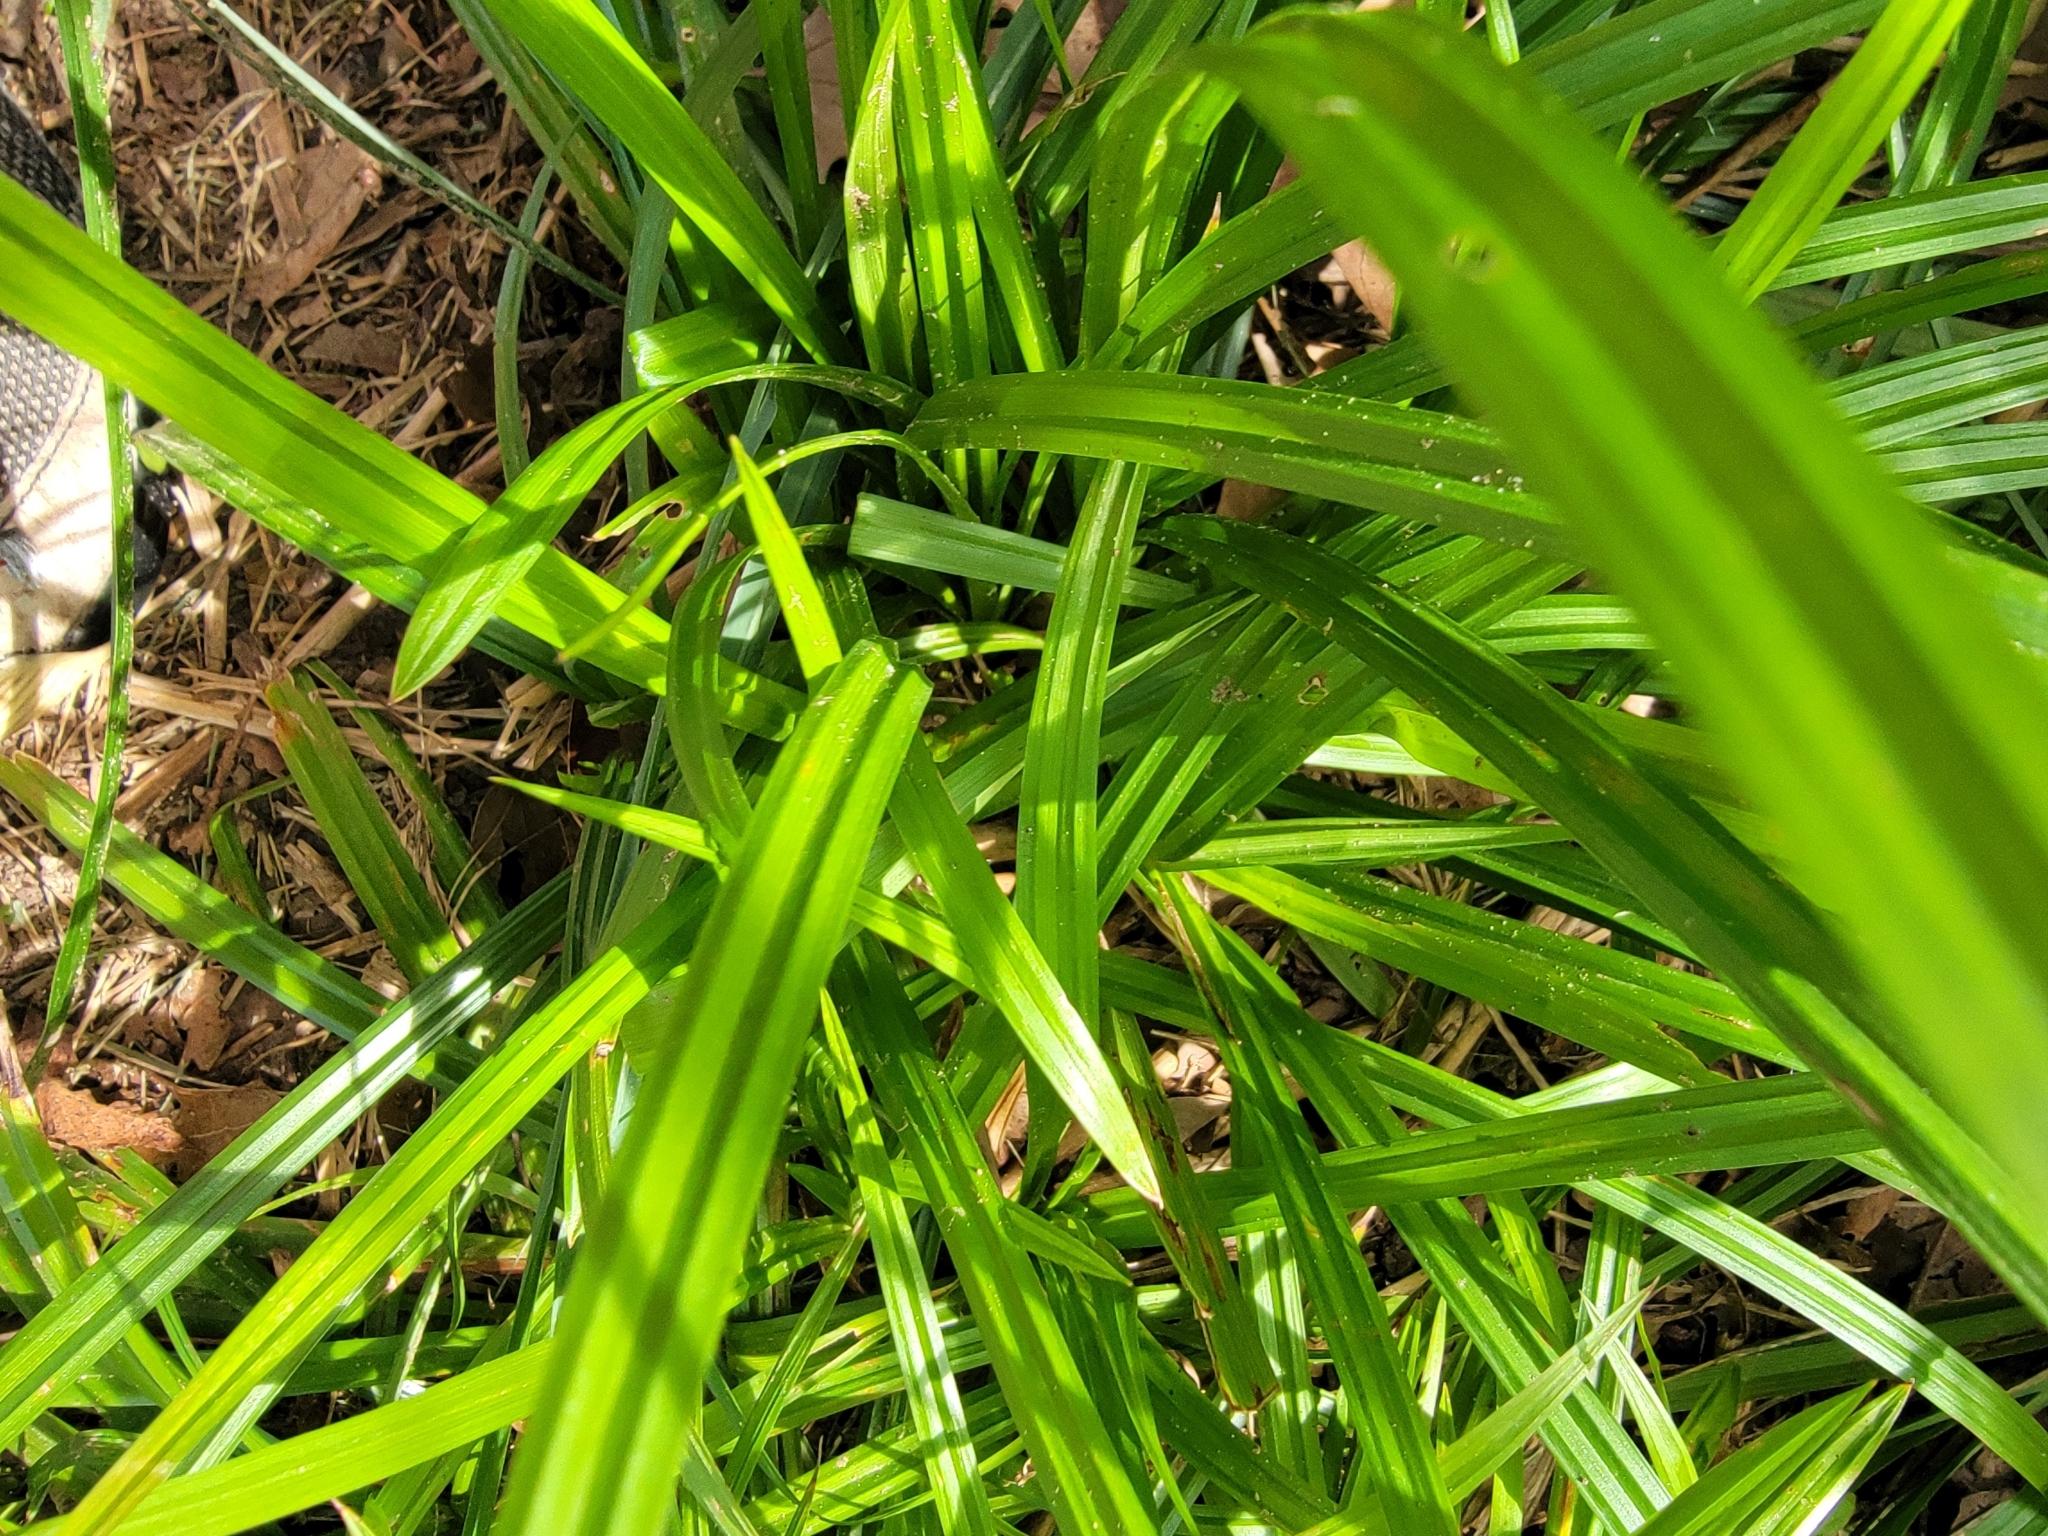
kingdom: Plantae
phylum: Tracheophyta
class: Liliopsida
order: Poales
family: Cyperaceae
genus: Carex
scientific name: Carex
